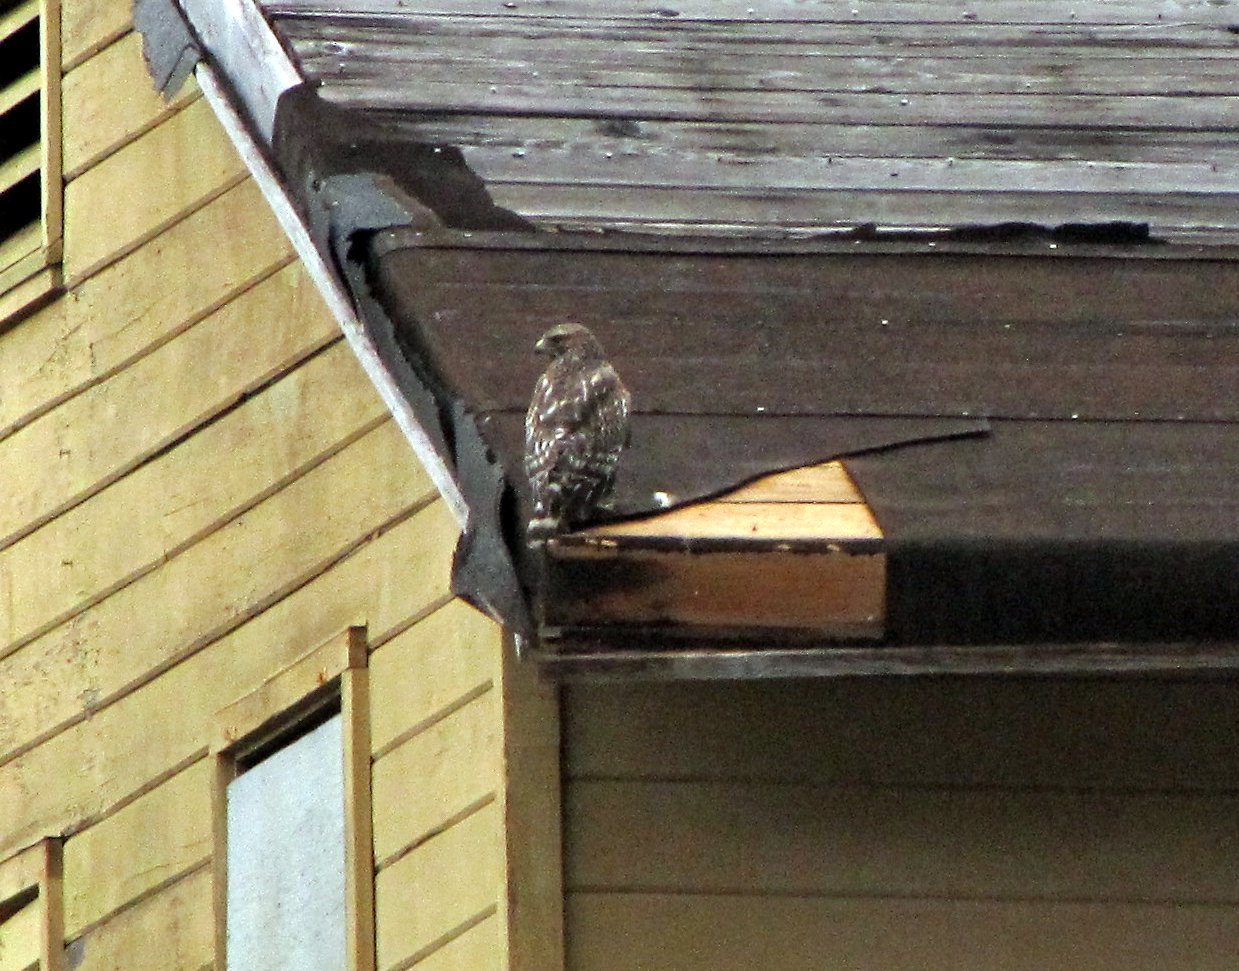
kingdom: Animalia
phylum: Chordata
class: Aves
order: Accipitriformes
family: Accipitridae
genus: Buteo
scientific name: Buteo lineatus
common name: Red-shouldered hawk
